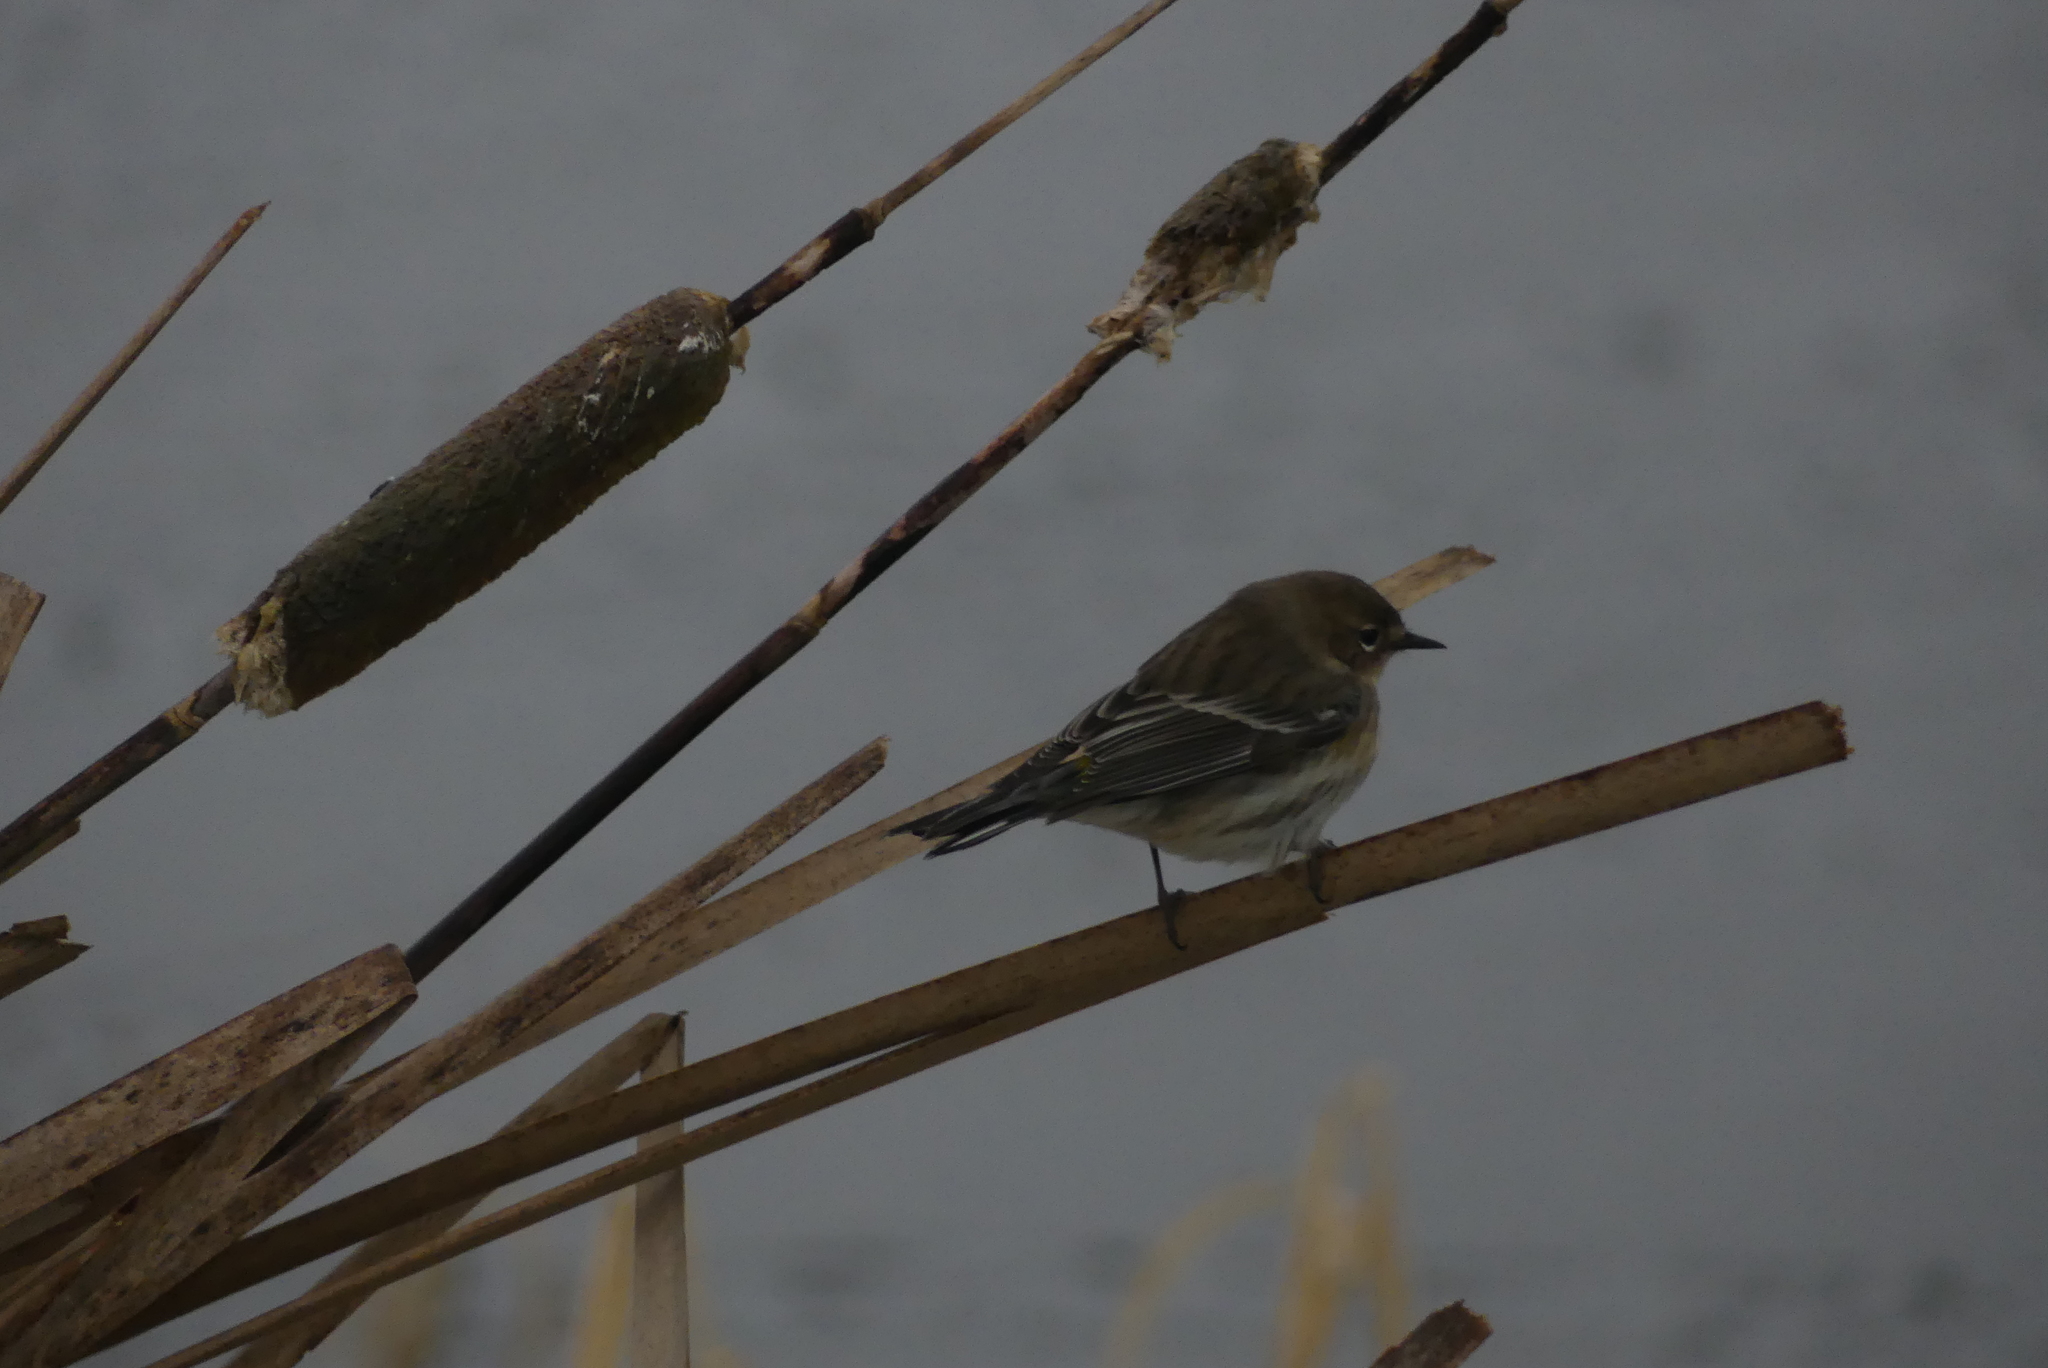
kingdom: Animalia
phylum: Chordata
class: Aves
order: Passeriformes
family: Parulidae
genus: Setophaga
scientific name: Setophaga coronata
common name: Myrtle warbler
